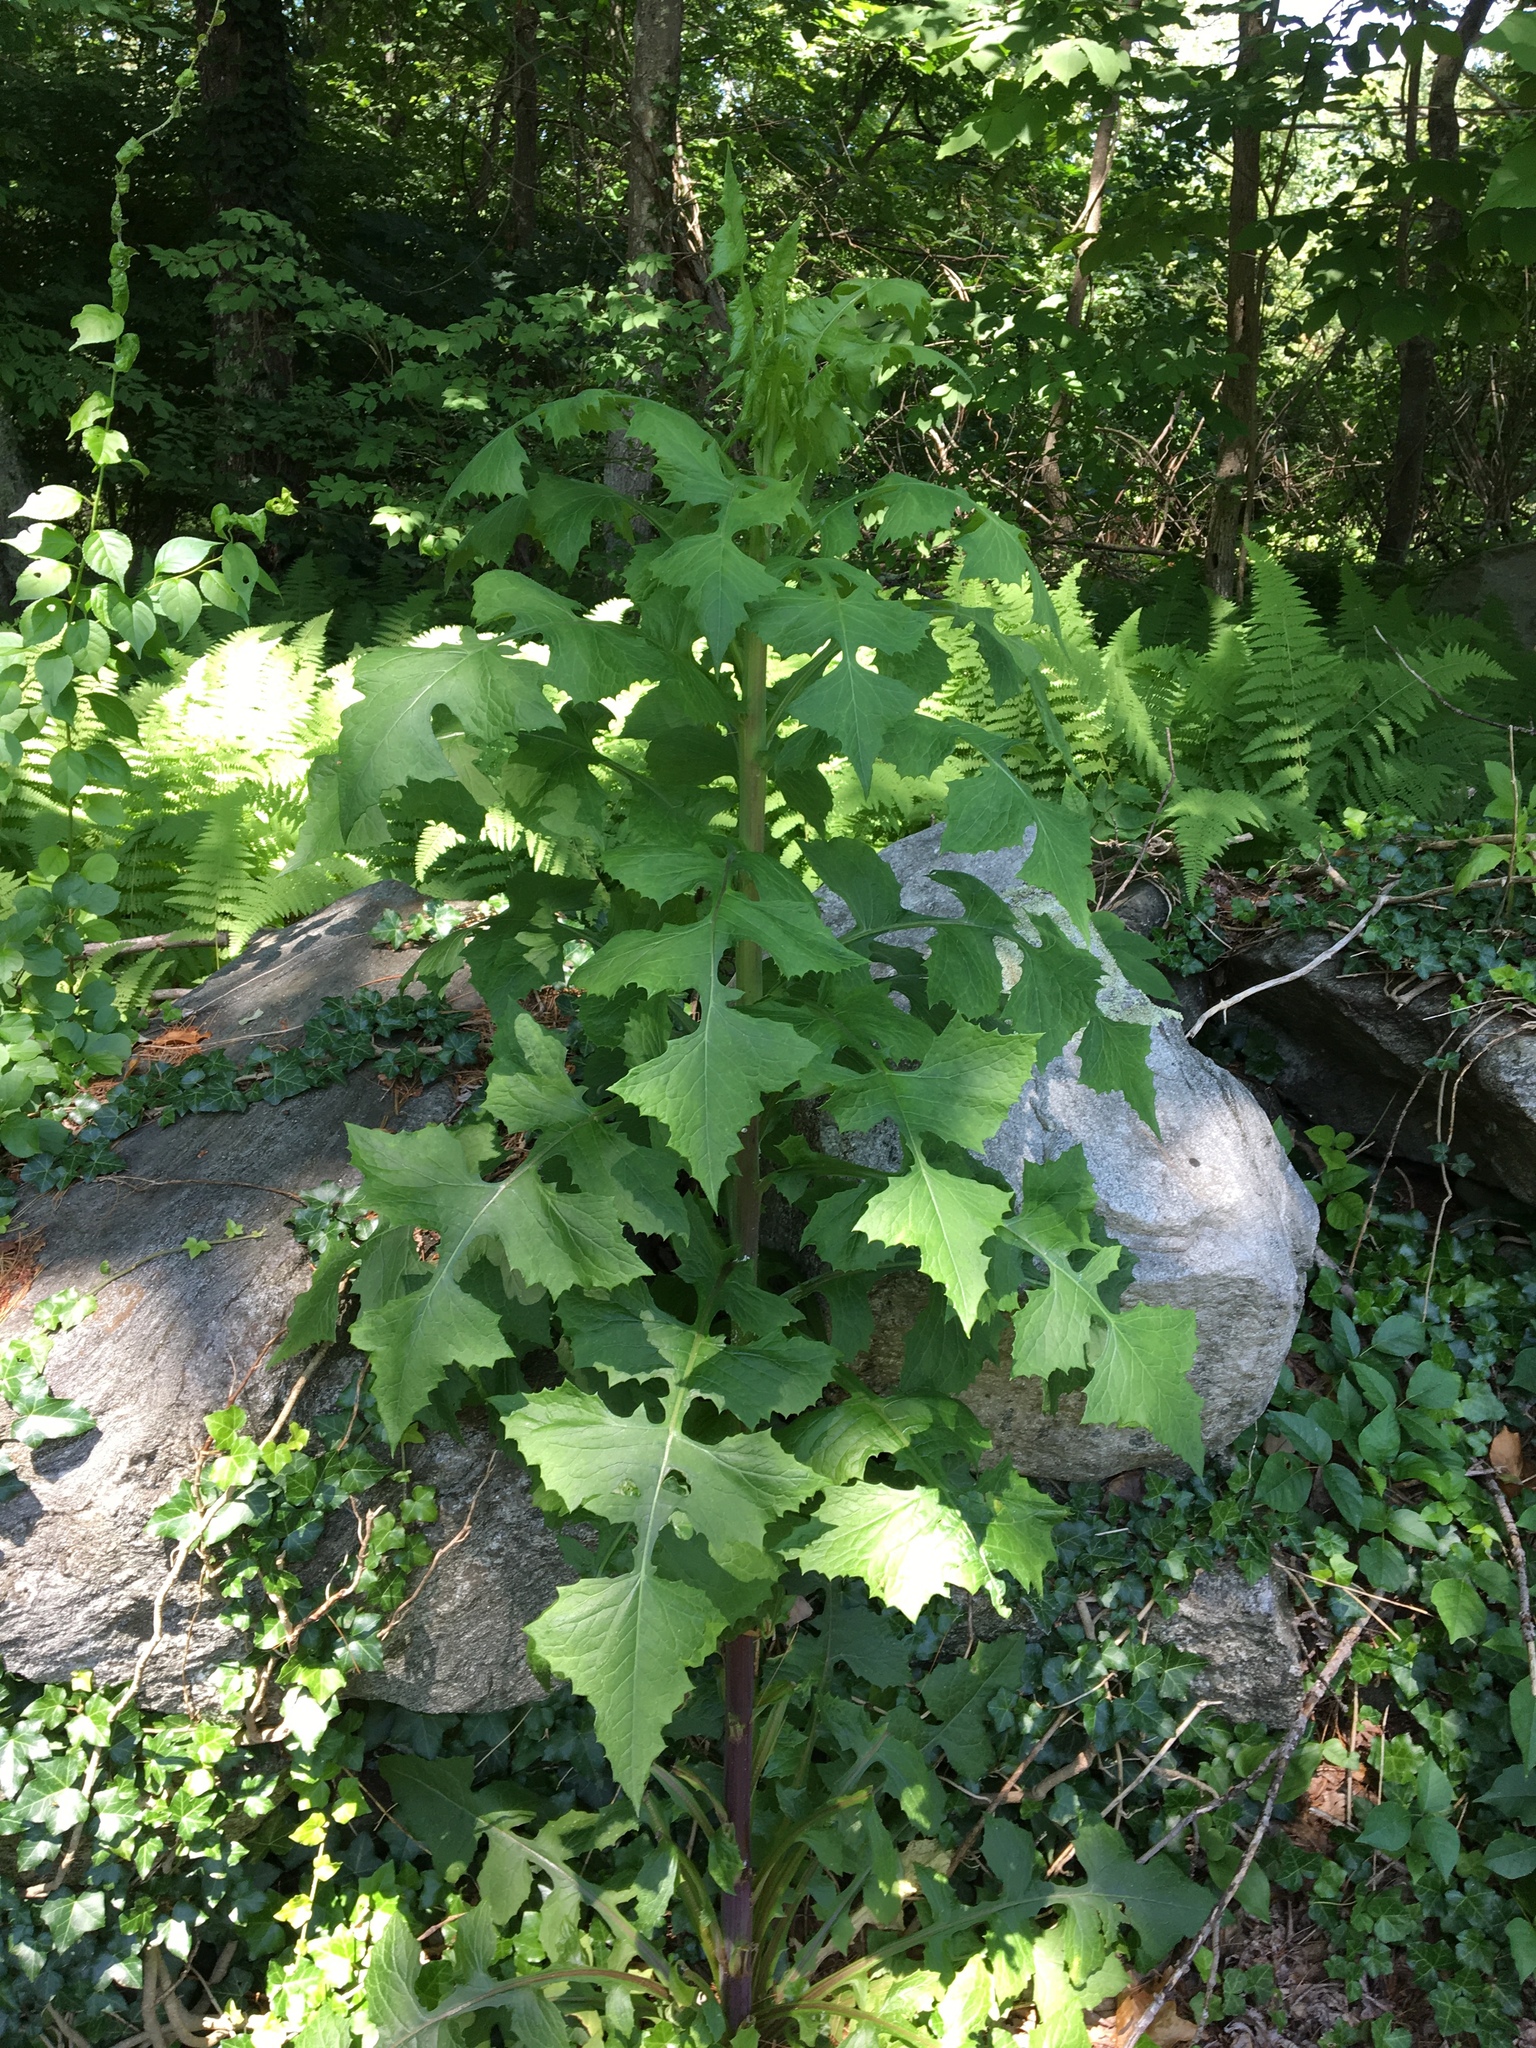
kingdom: Plantae
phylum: Tracheophyta
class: Magnoliopsida
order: Asterales
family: Asteraceae
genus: Lactuca
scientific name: Lactuca biennis
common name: Blue wood lettuce
